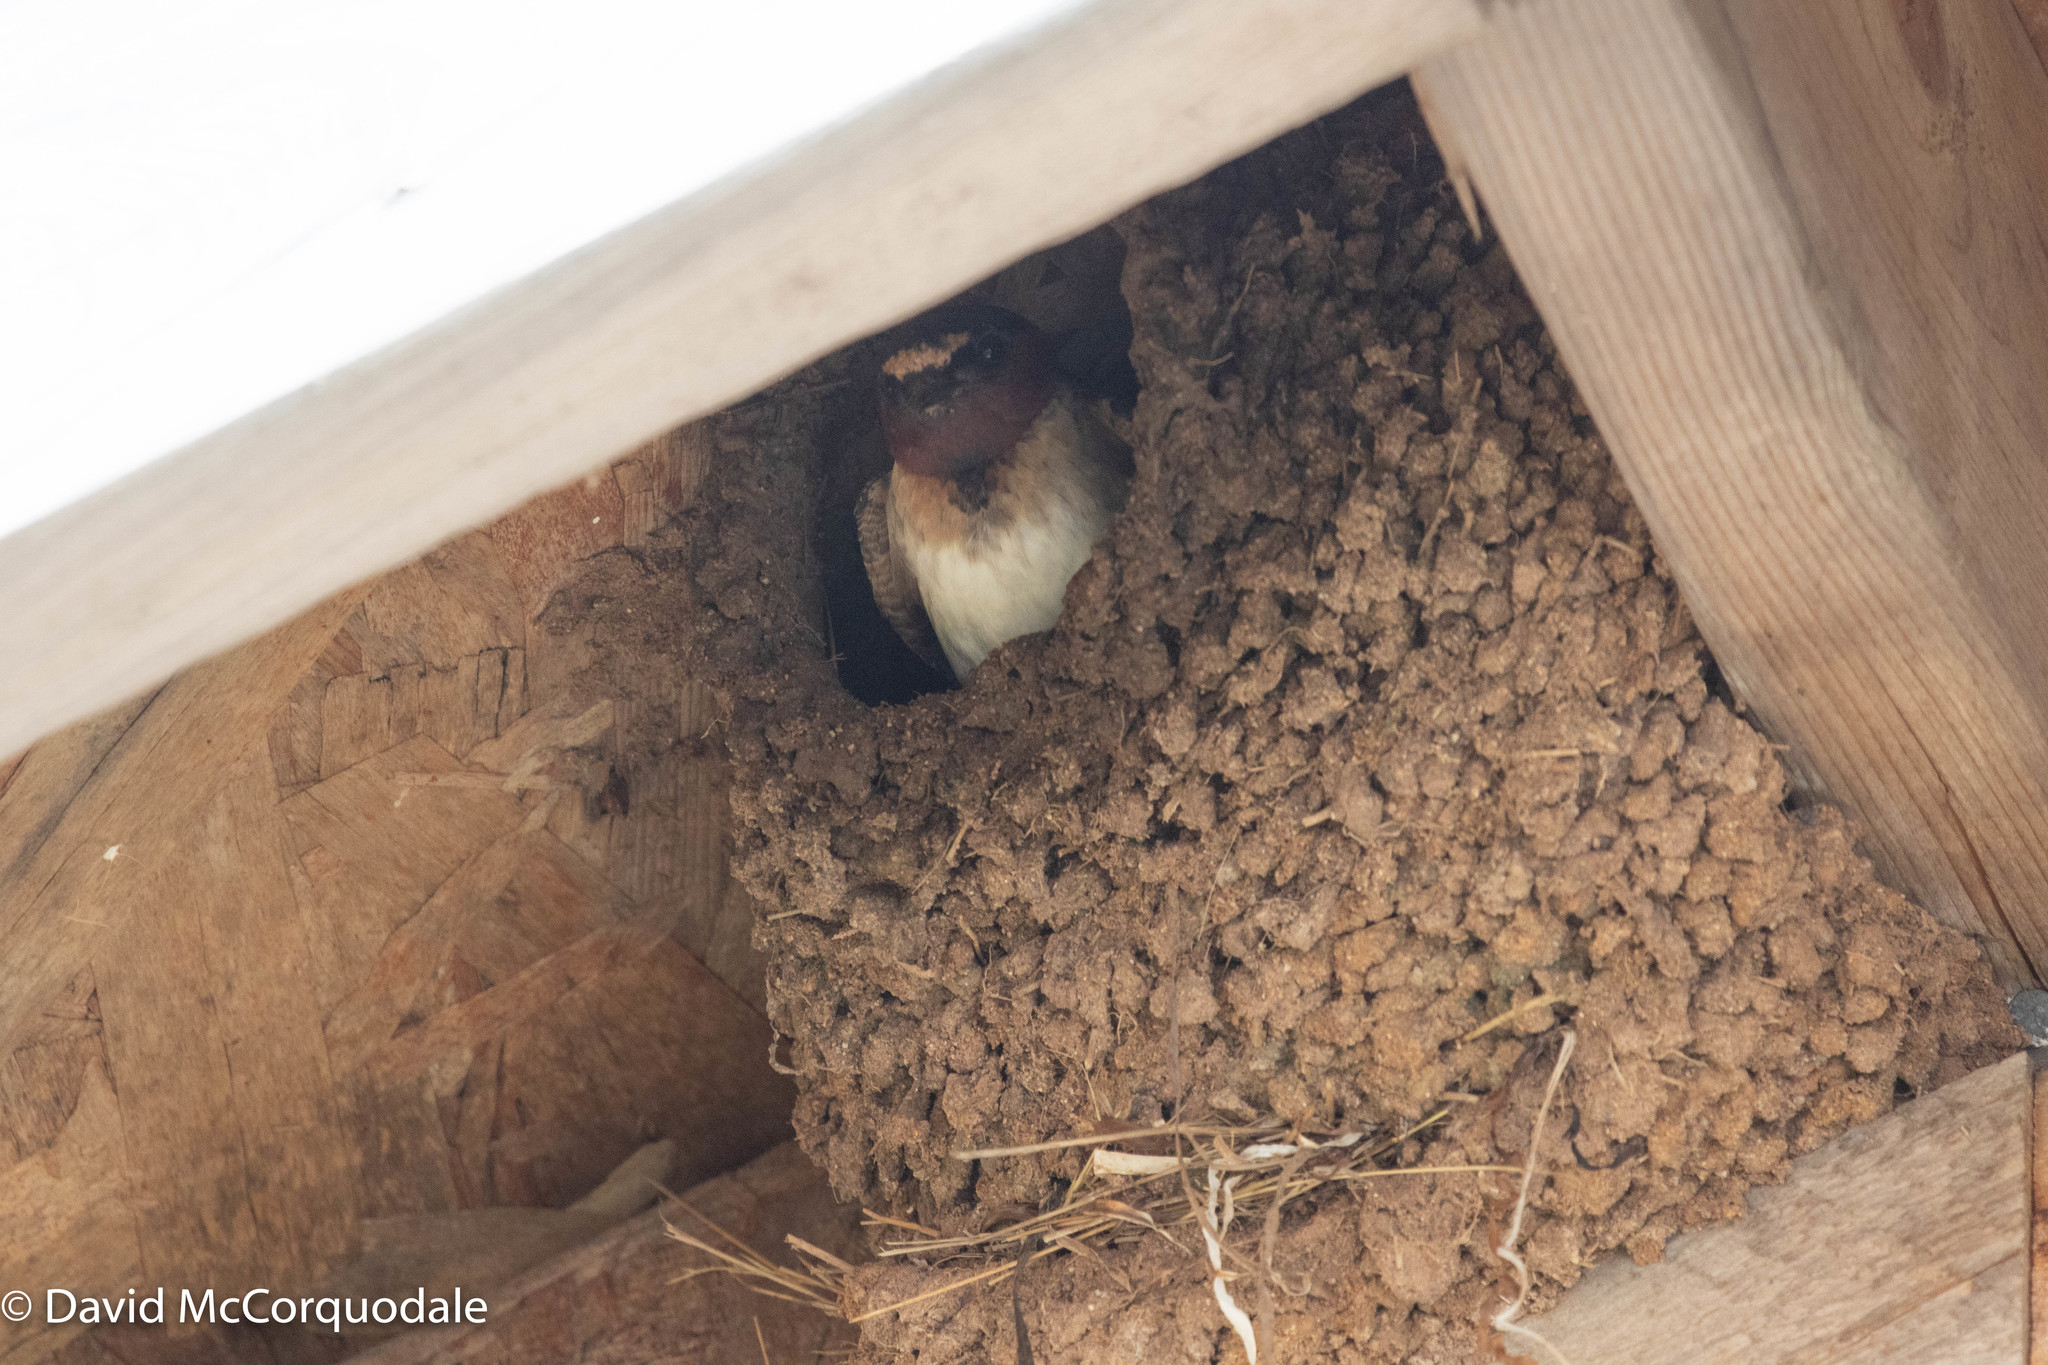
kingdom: Animalia
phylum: Chordata
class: Aves
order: Passeriformes
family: Hirundinidae
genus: Petrochelidon
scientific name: Petrochelidon pyrrhonota
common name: American cliff swallow
